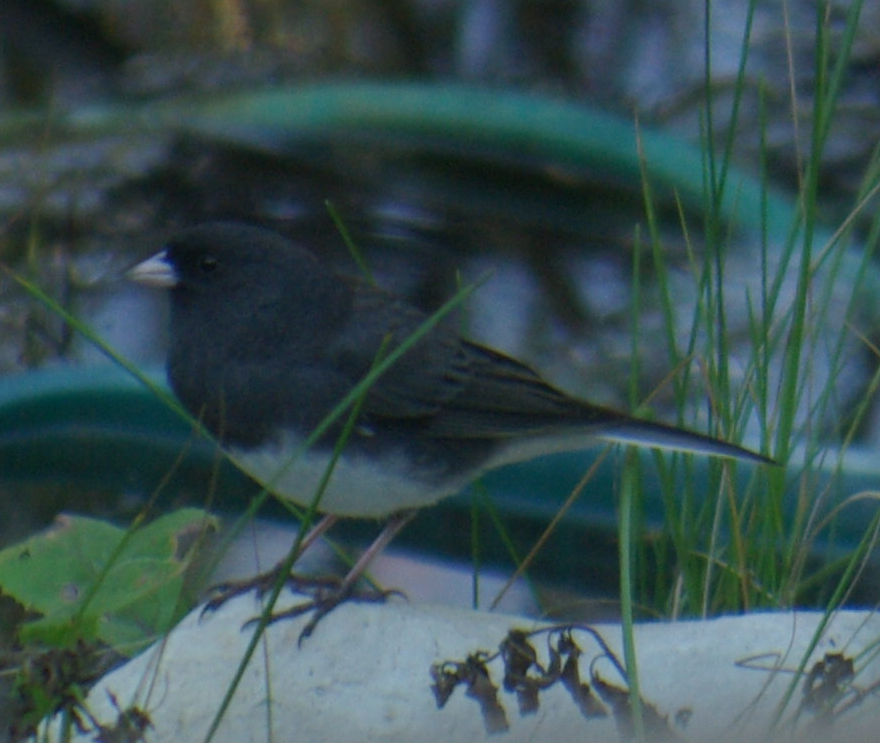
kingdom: Animalia
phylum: Chordata
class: Aves
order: Passeriformes
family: Passerellidae
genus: Junco
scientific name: Junco hyemalis
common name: Dark-eyed junco
